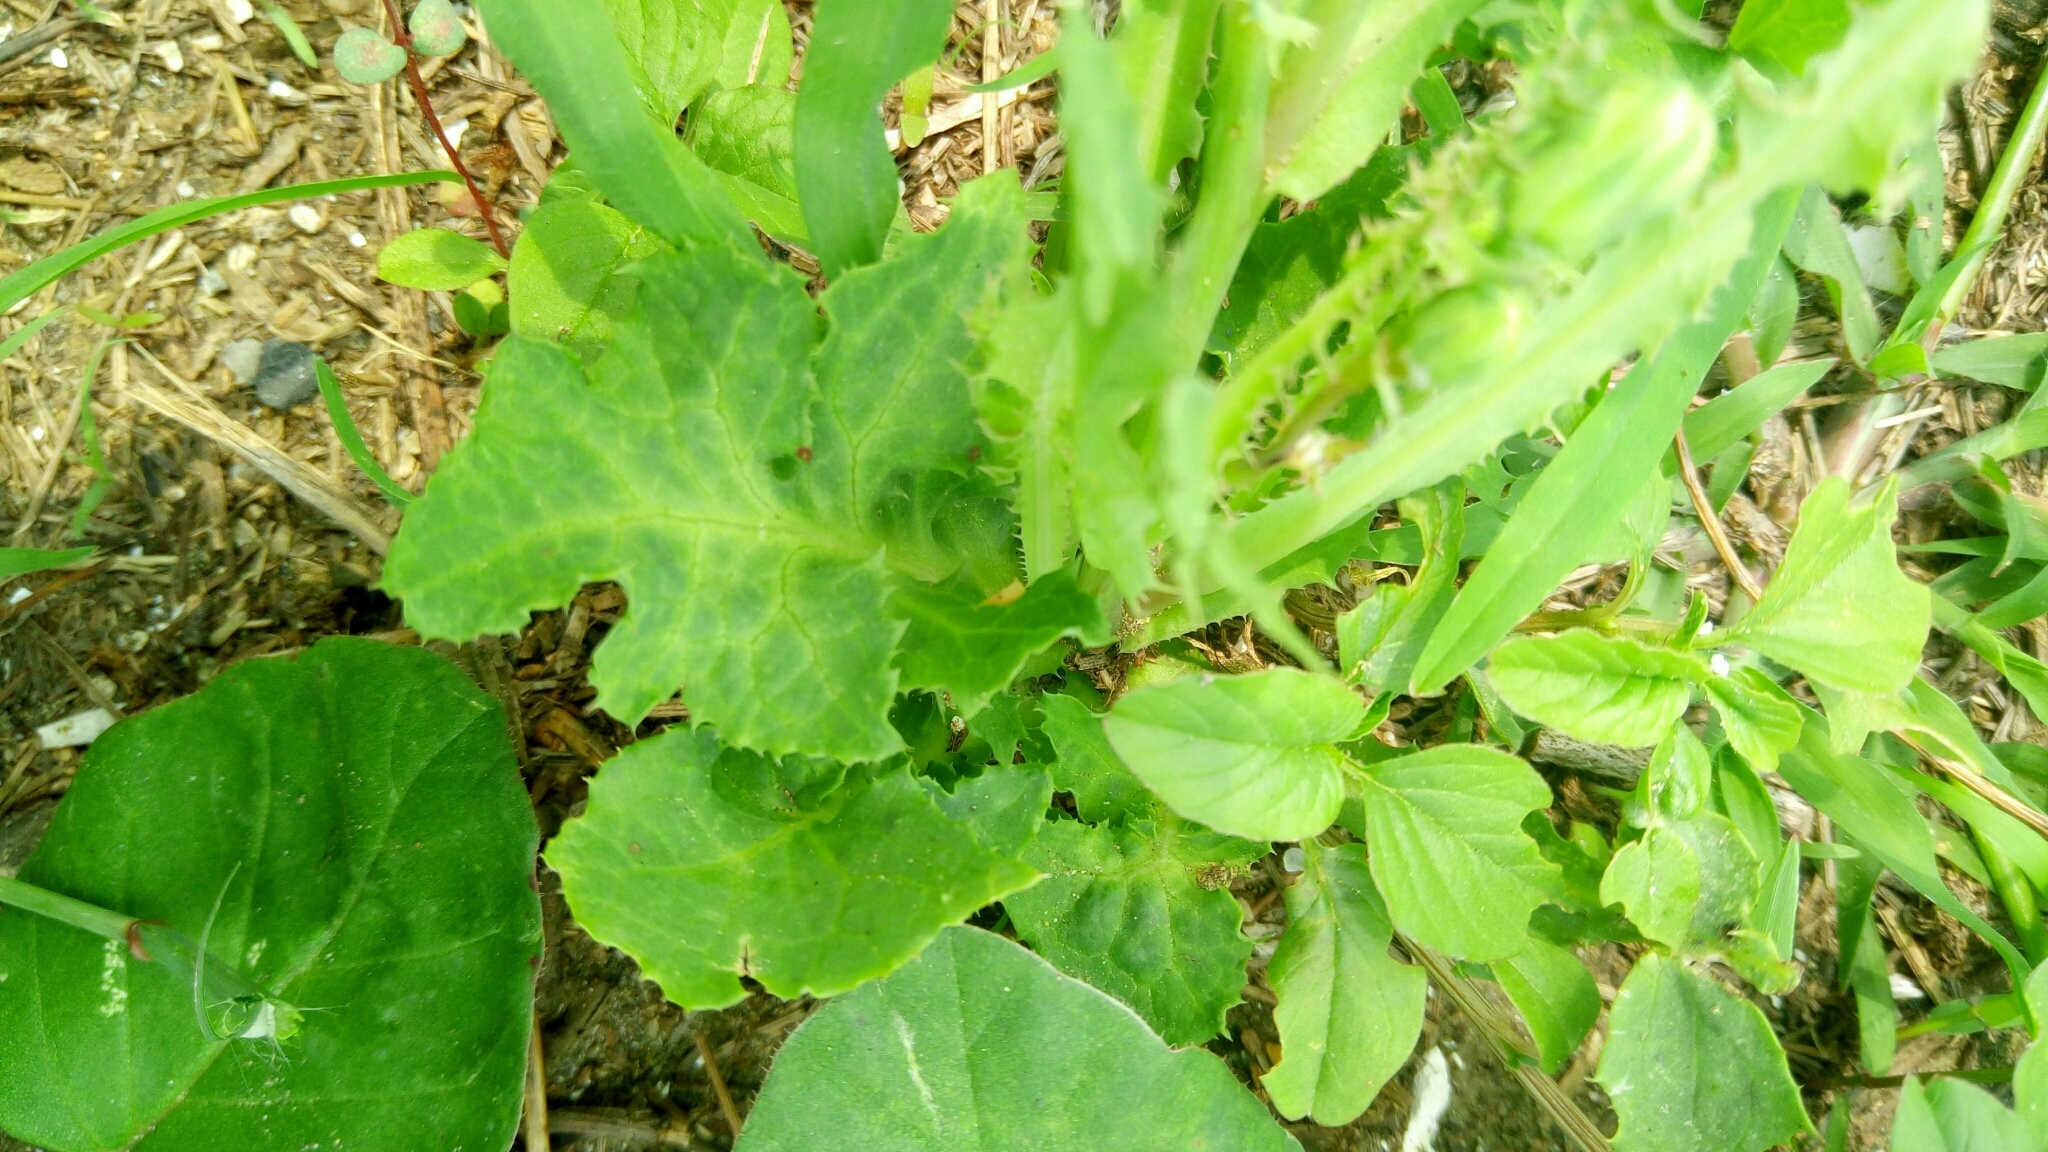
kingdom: Plantae
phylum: Tracheophyta
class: Magnoliopsida
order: Asterales
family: Asteraceae
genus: Sonchus
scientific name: Sonchus oleraceus
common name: Common sowthistle
